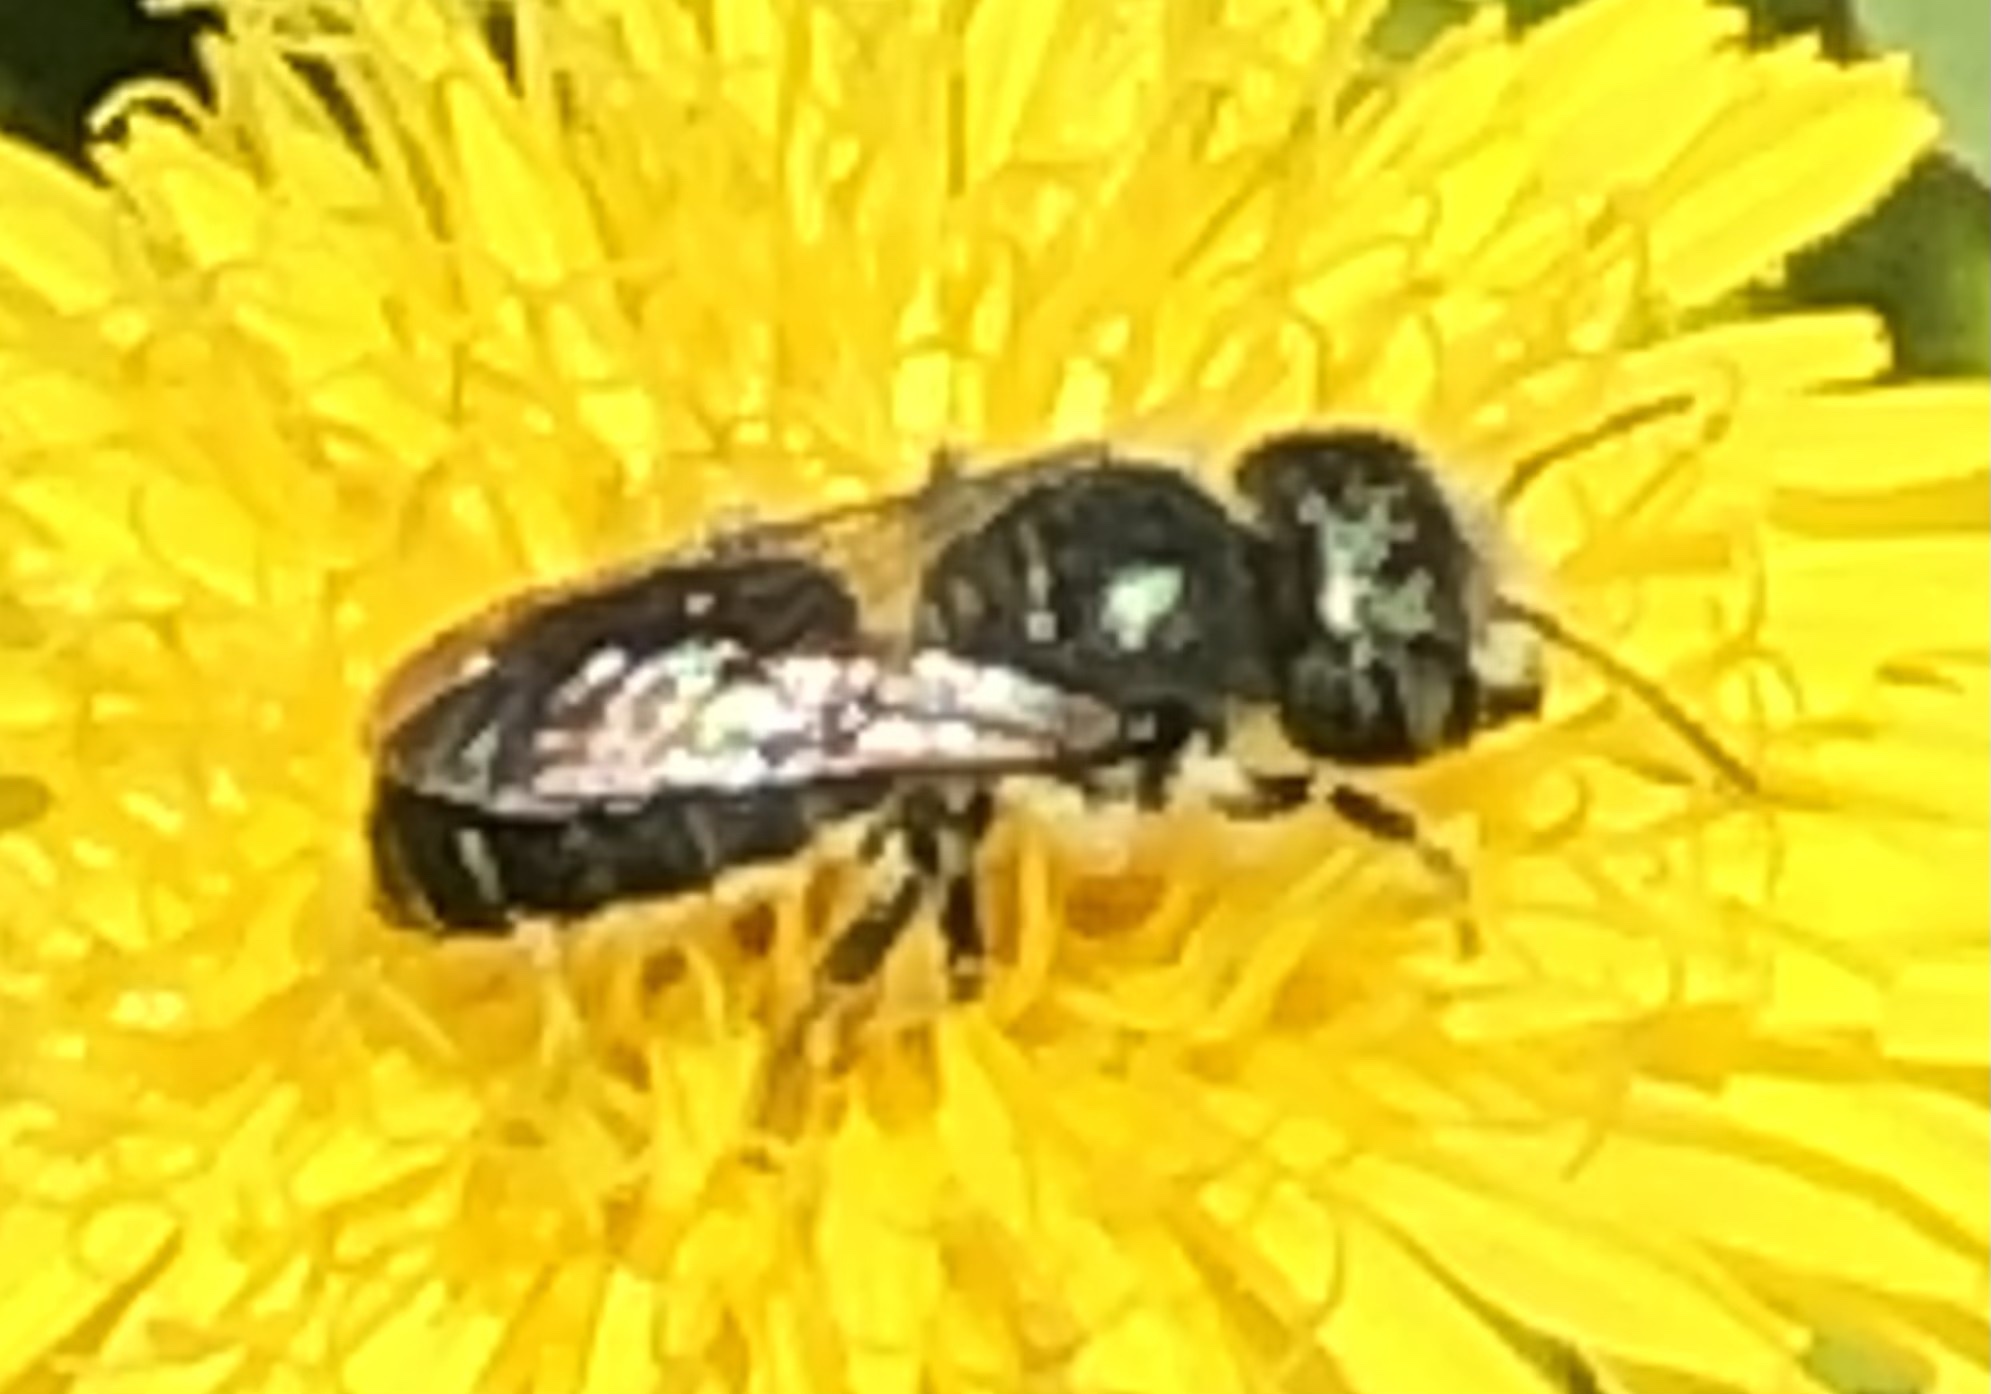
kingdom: Animalia
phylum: Arthropoda
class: Insecta
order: Hymenoptera
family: Megachilidae
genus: Osmia
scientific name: Osmia georgica
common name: Georgia mason
